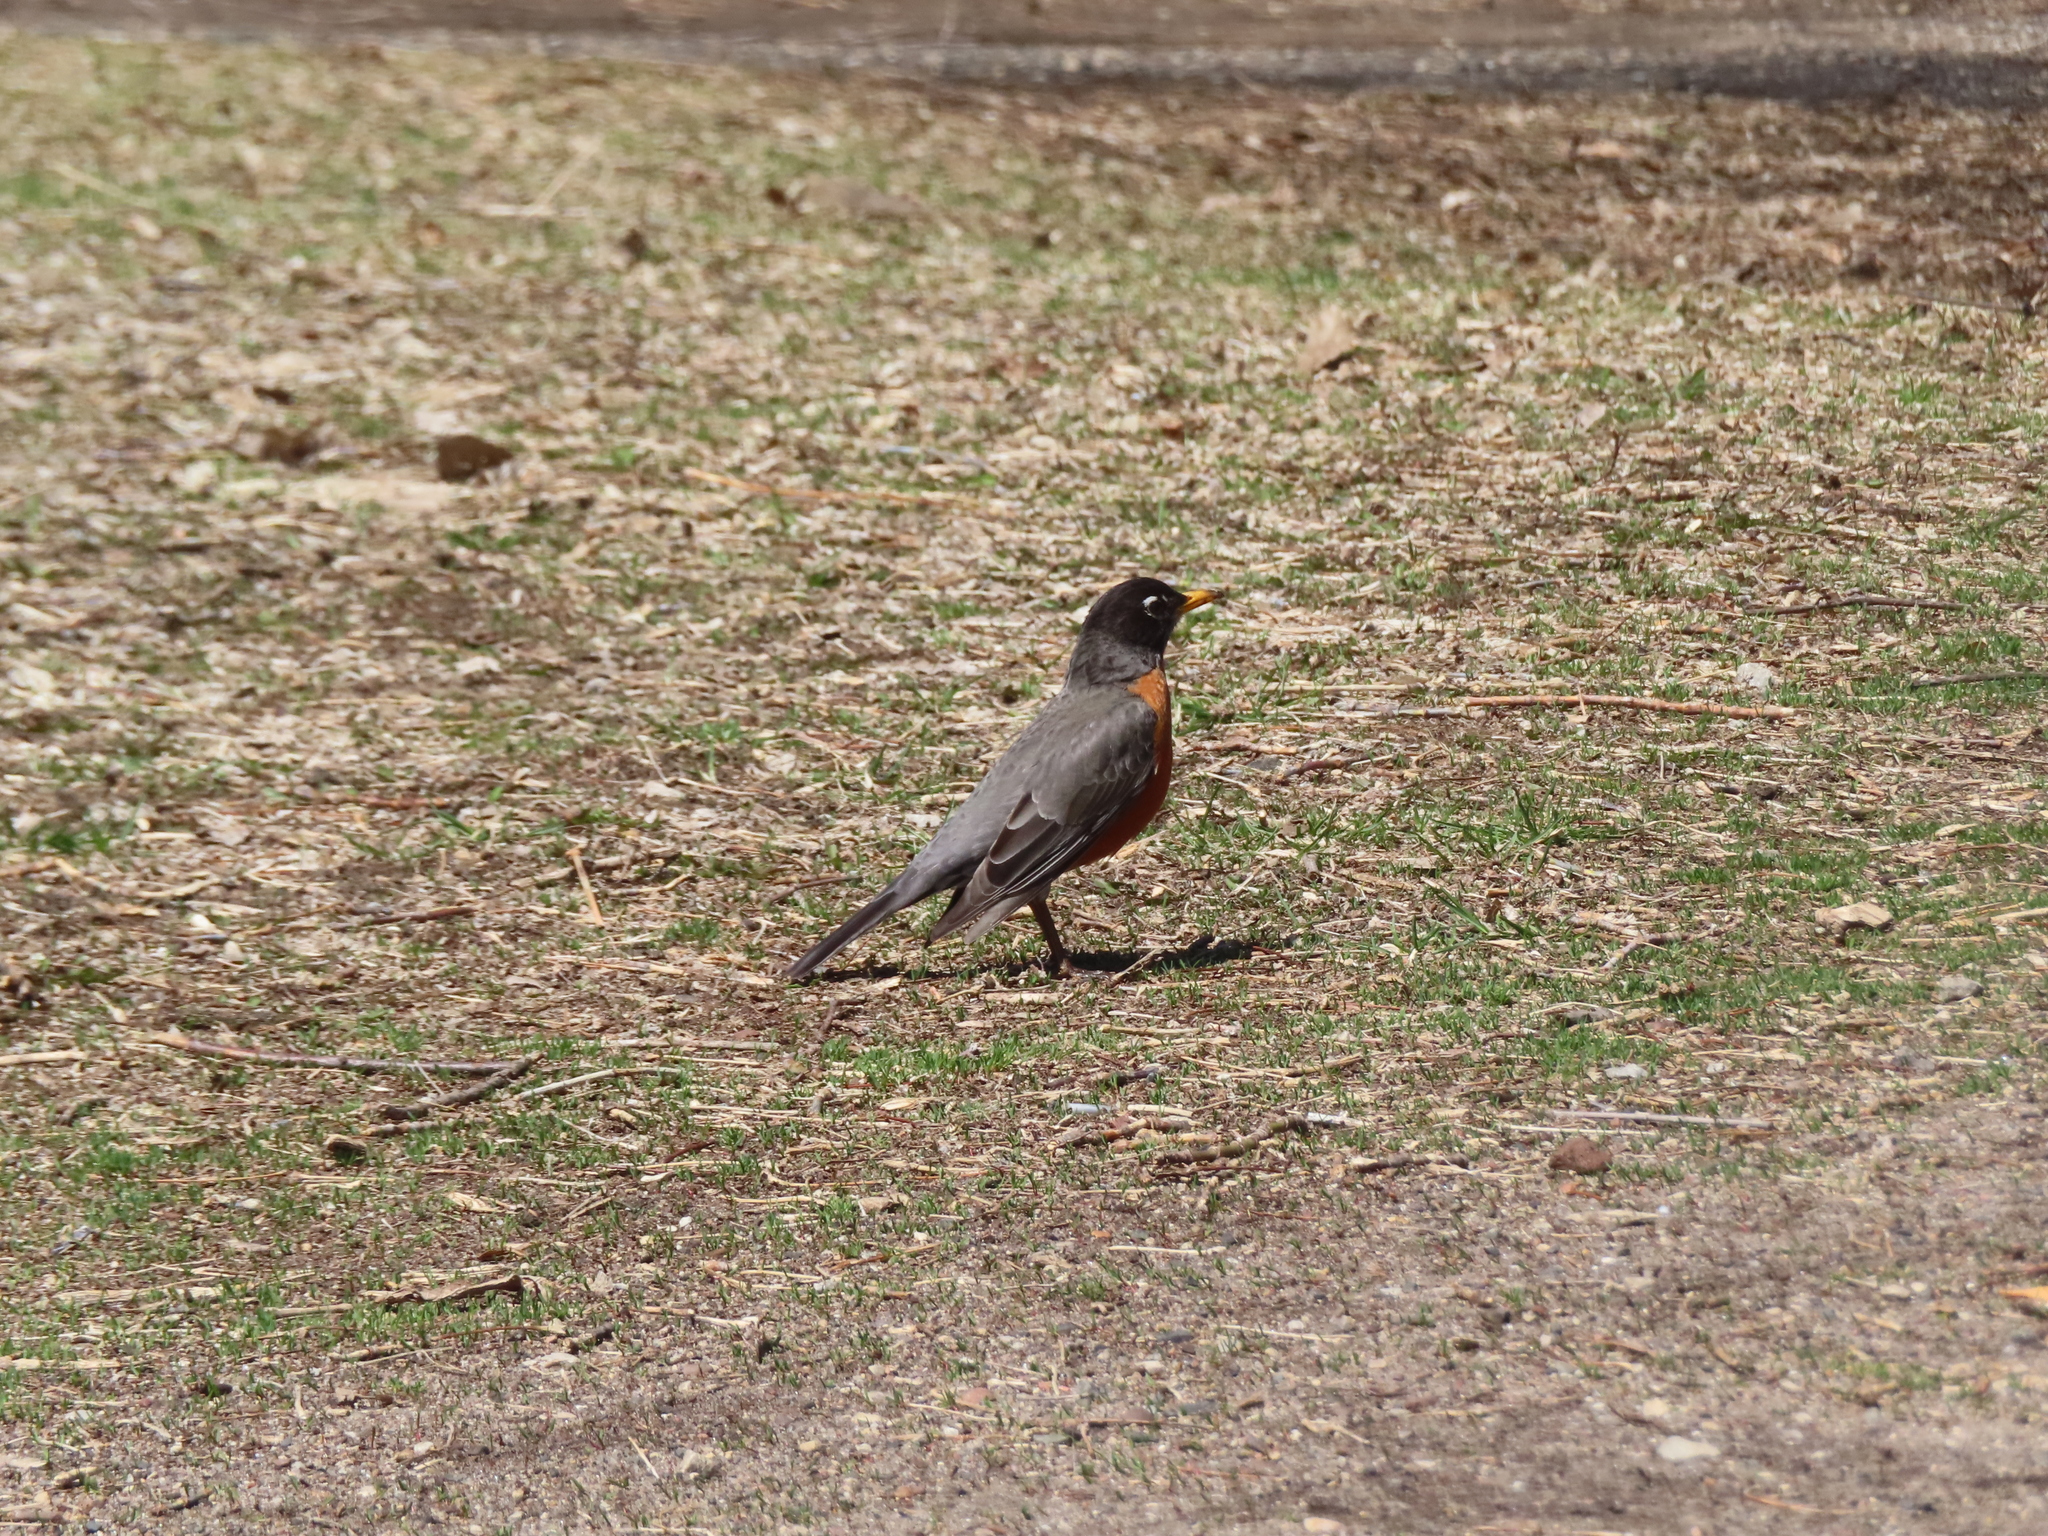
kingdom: Animalia
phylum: Chordata
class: Aves
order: Passeriformes
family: Turdidae
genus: Turdus
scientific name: Turdus migratorius
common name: American robin
